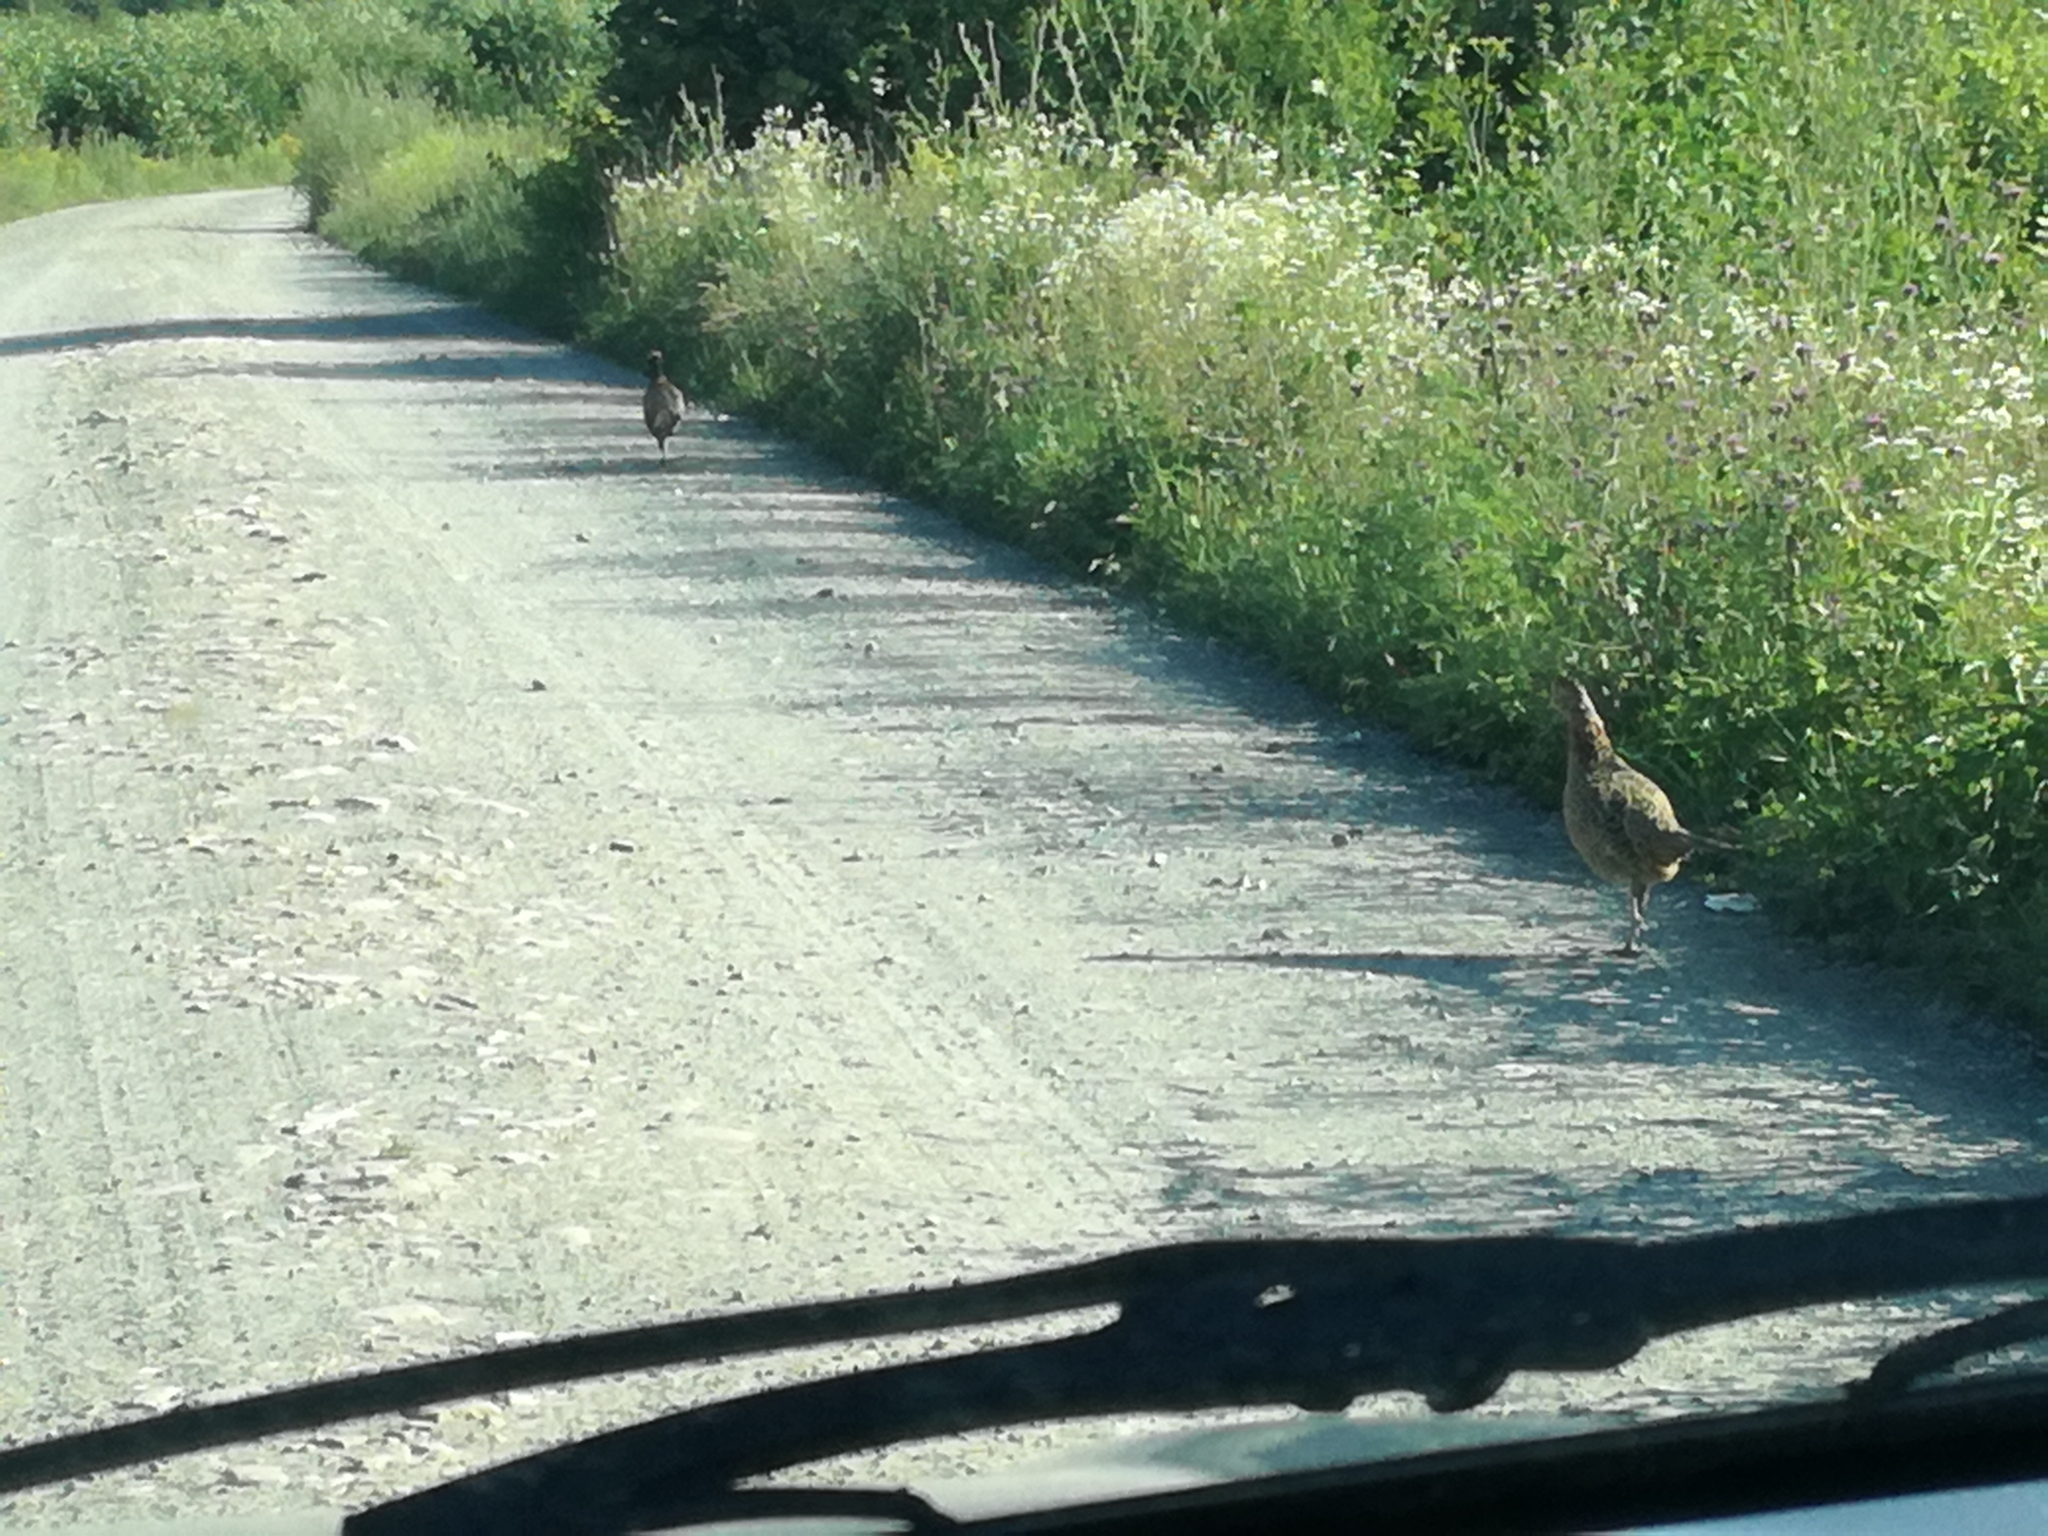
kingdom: Animalia
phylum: Chordata
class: Aves
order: Galliformes
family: Phasianidae
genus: Phasianus
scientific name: Phasianus colchicus
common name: Common pheasant
